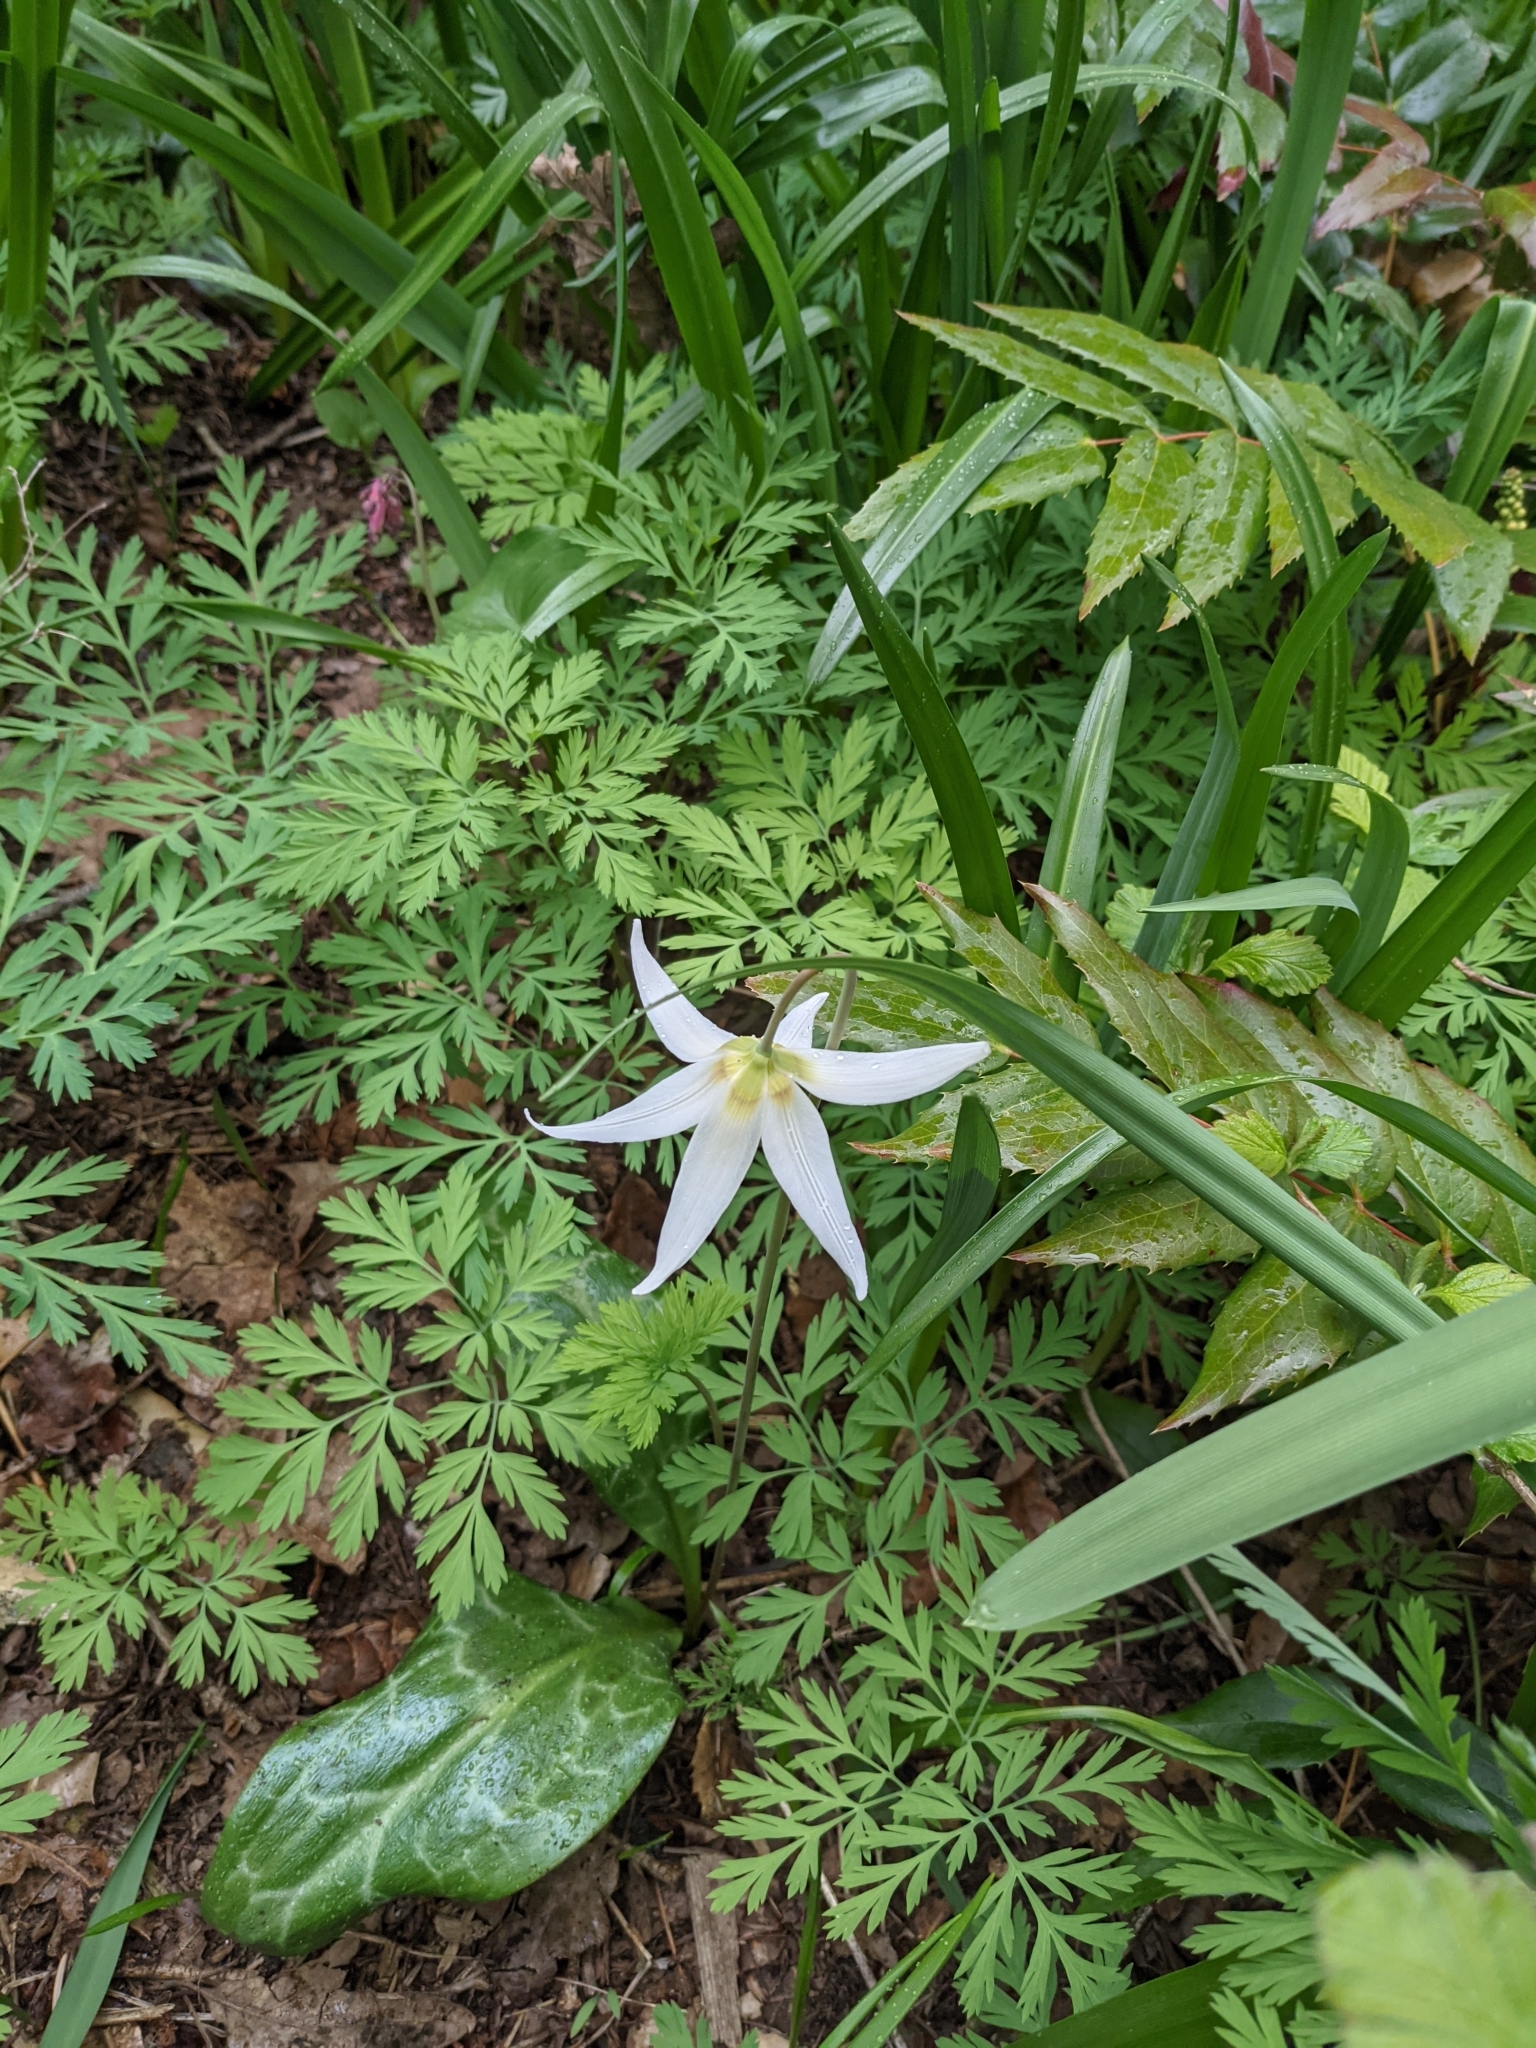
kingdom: Plantae
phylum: Tracheophyta
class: Liliopsida
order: Liliales
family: Liliaceae
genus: Erythronium
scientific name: Erythronium oregonum
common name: Giant adder's-tongue
